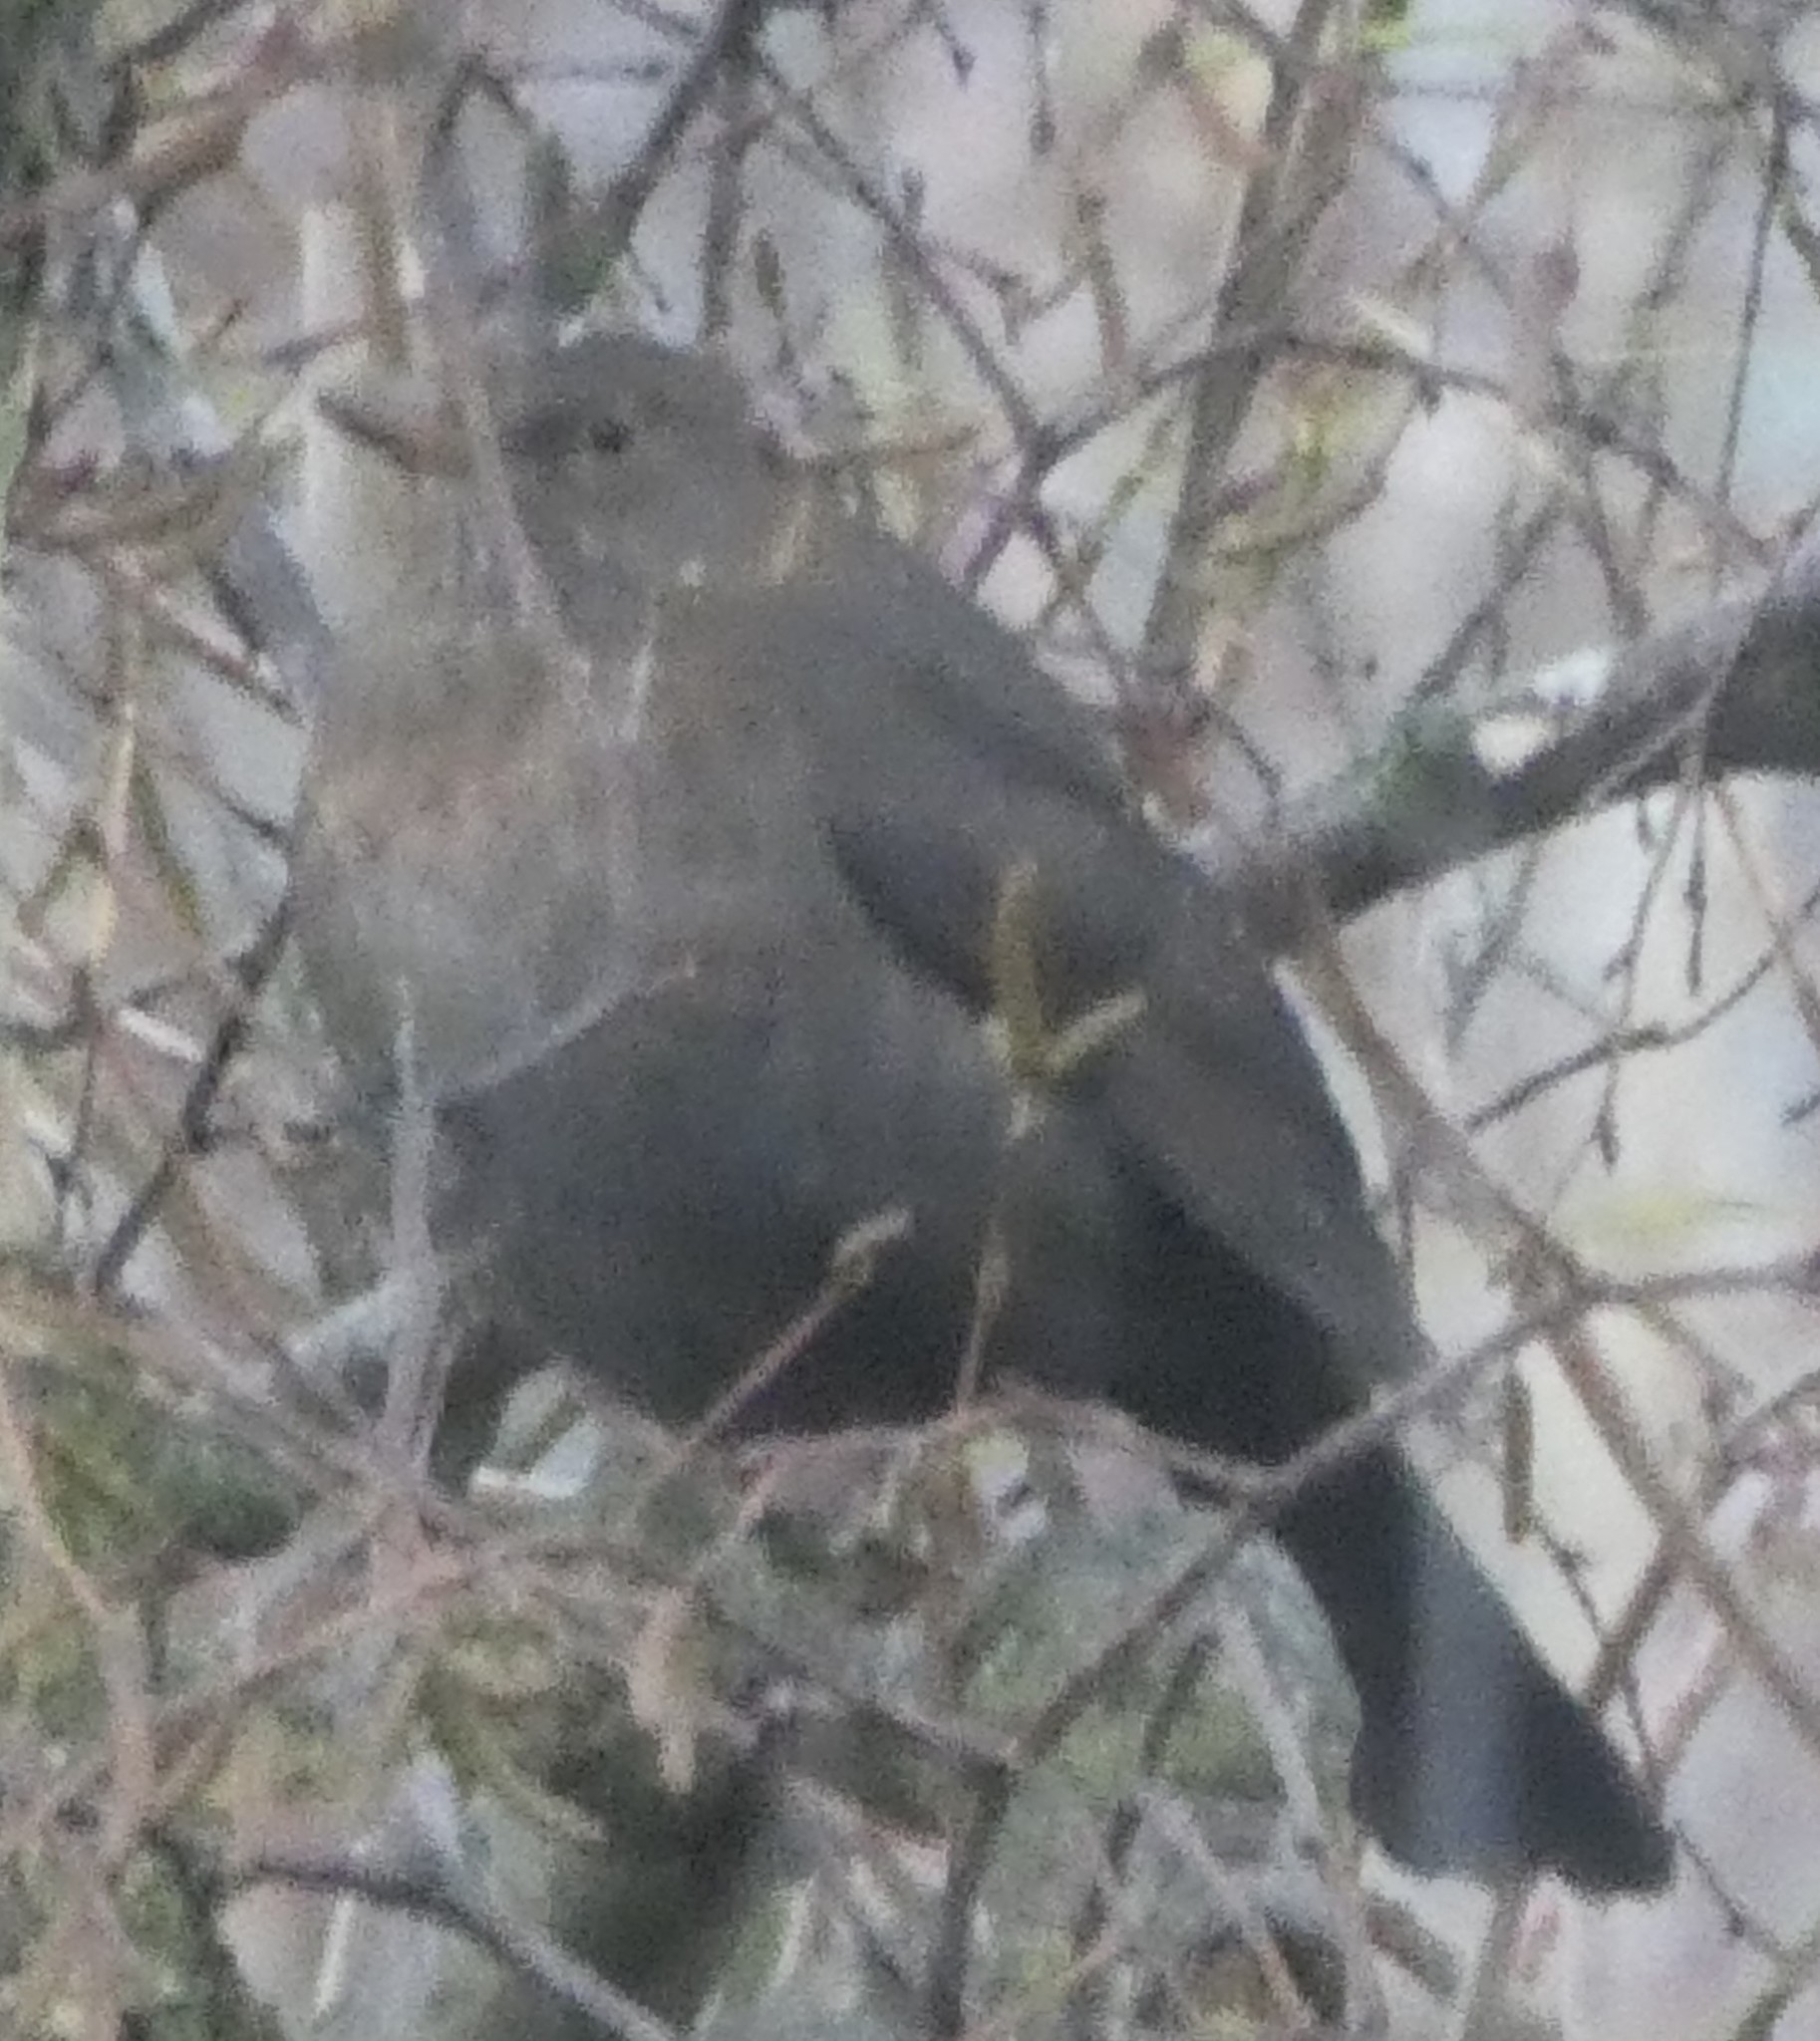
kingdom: Animalia
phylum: Chordata
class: Aves
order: Passeriformes
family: Turdidae
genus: Turdus
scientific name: Turdus merula
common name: Common blackbird
